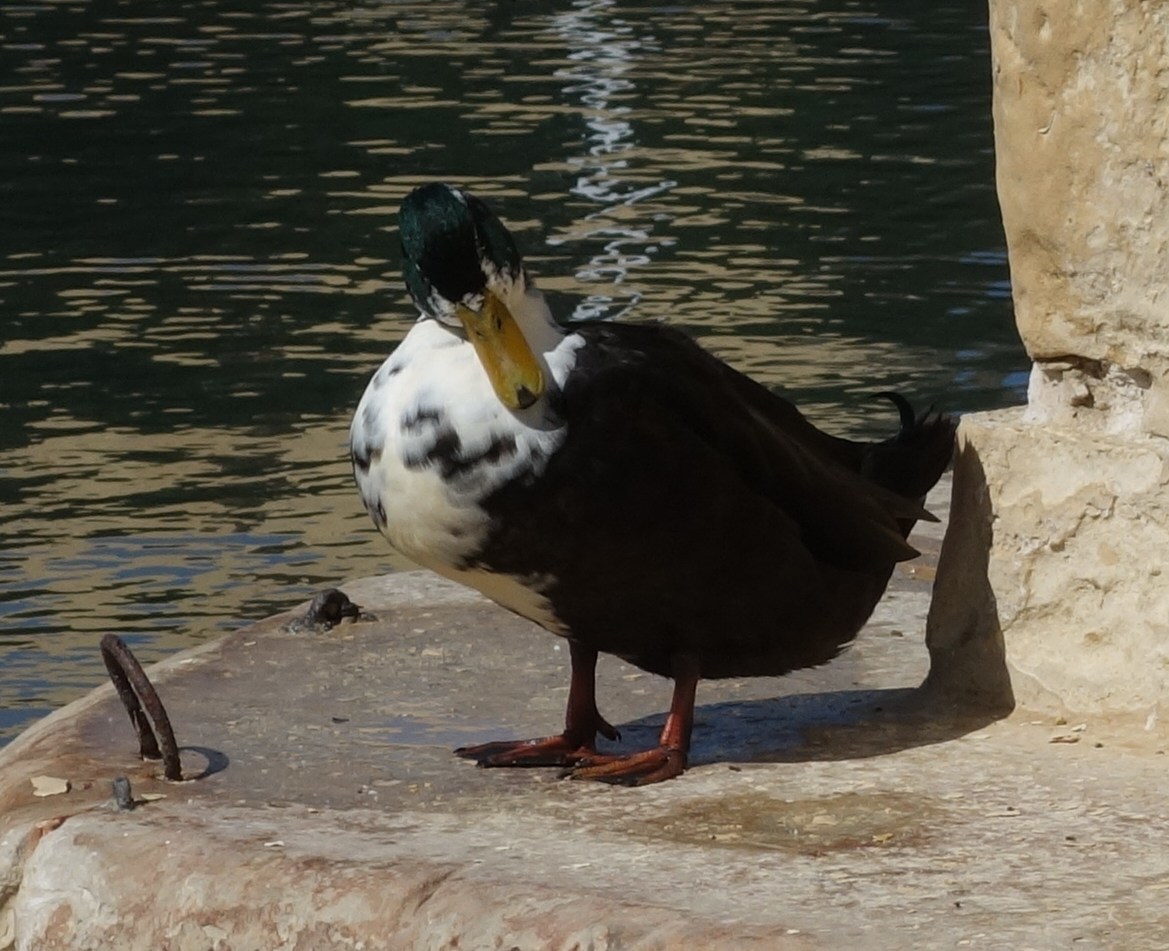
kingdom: Animalia
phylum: Chordata
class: Aves
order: Anseriformes
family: Anatidae
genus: Anas
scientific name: Anas platyrhynchos
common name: Mallard
